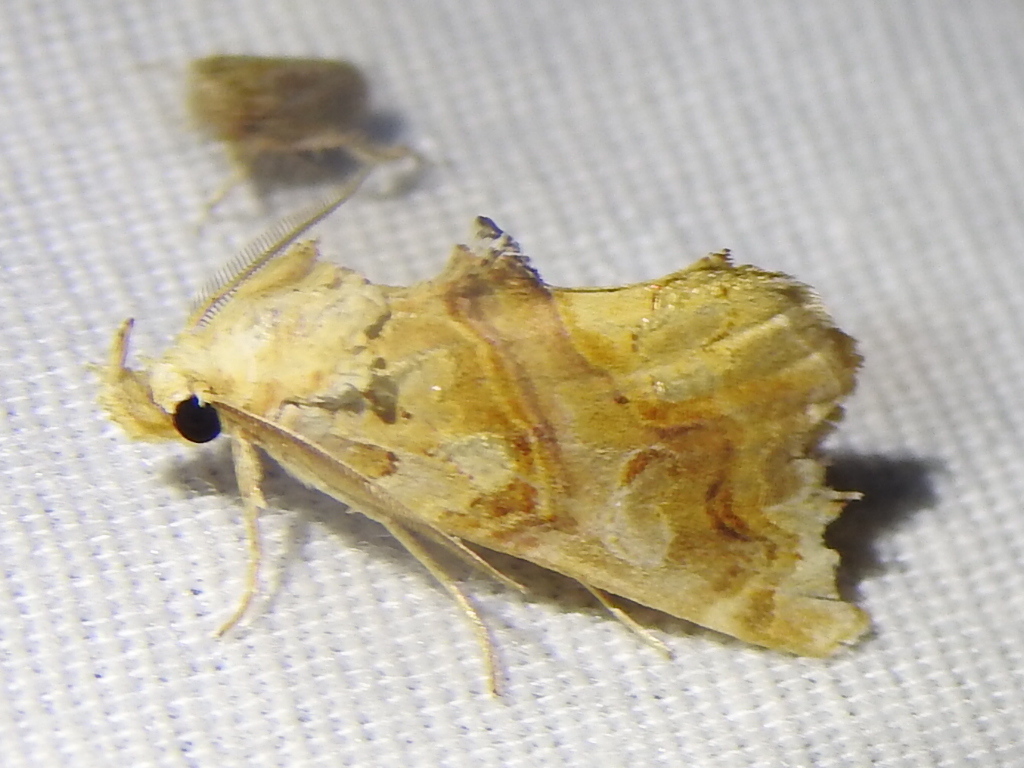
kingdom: Animalia
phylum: Arthropoda
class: Insecta
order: Lepidoptera
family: Erebidae
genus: Plusiodonta
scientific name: Plusiodonta compressipalpis
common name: Moonseed moth
